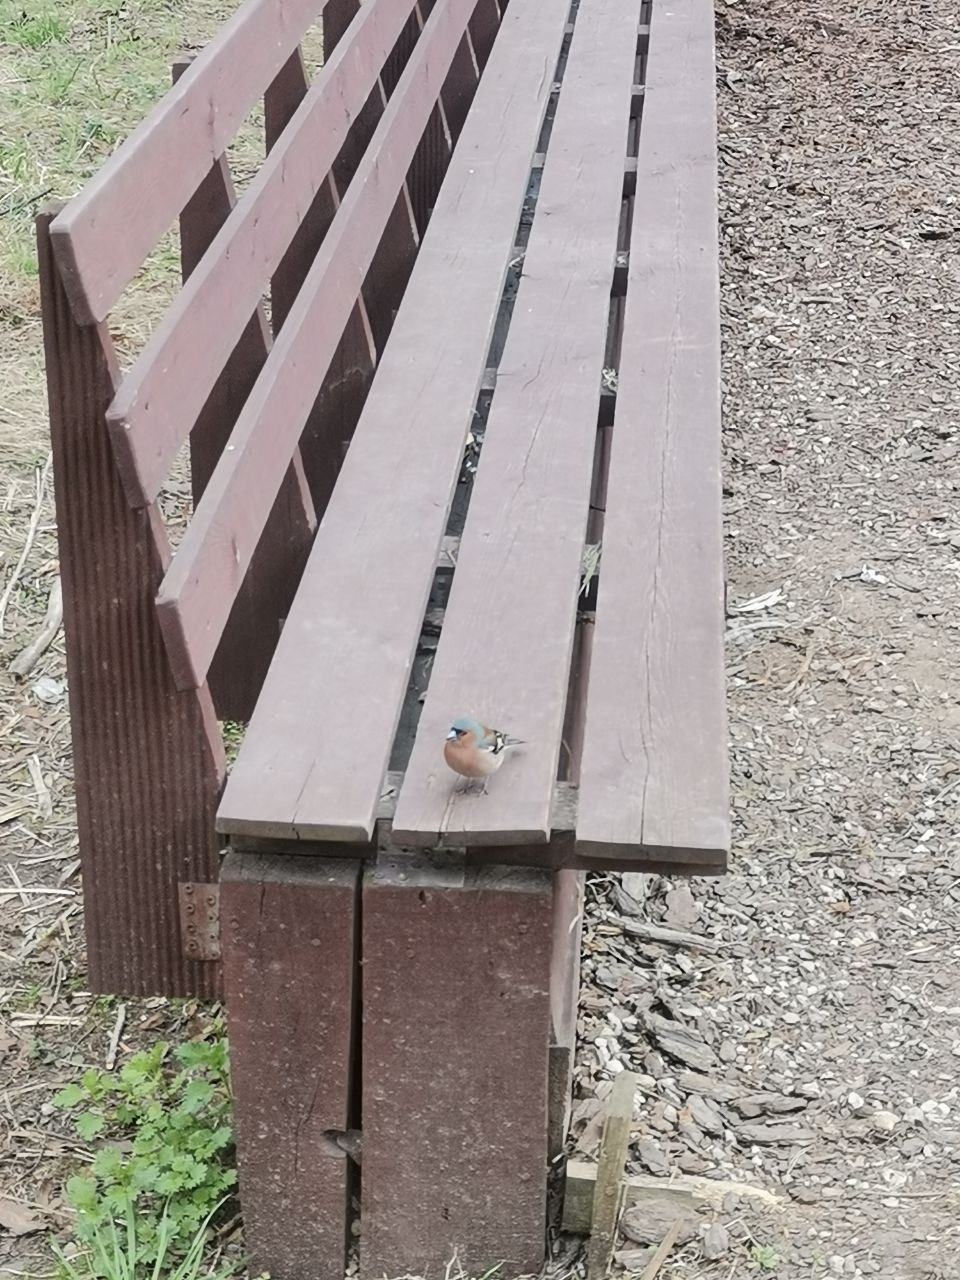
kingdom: Animalia
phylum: Chordata
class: Aves
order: Passeriformes
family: Fringillidae
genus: Fringilla
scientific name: Fringilla coelebs
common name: Common chaffinch
